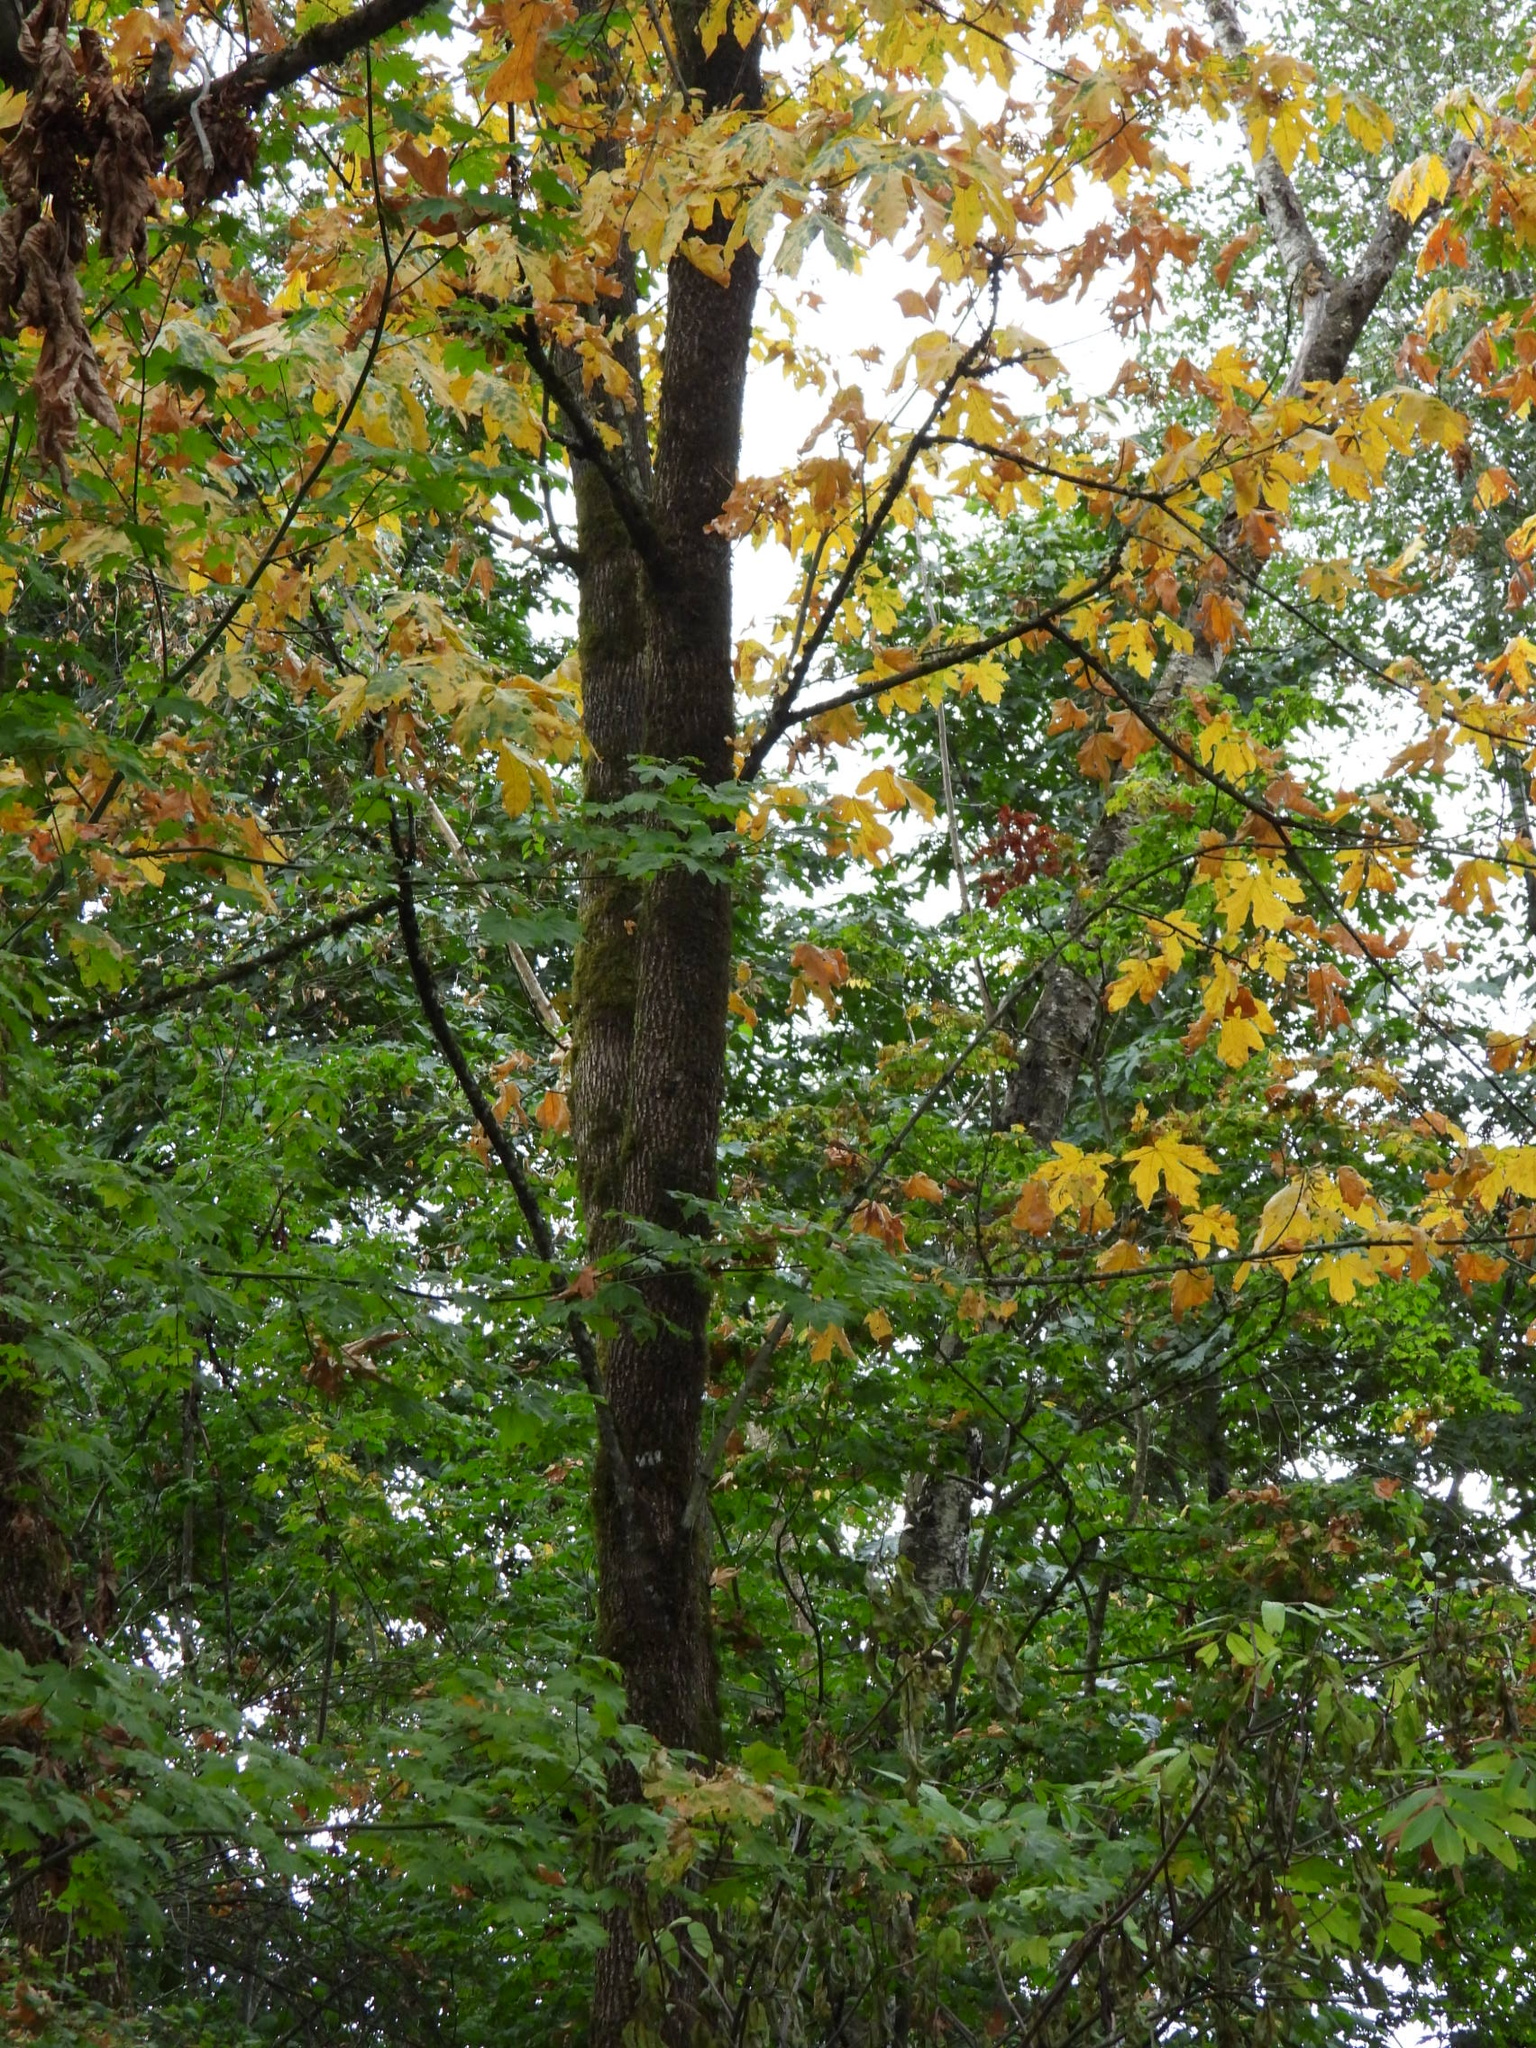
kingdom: Plantae
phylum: Tracheophyta
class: Magnoliopsida
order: Sapindales
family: Sapindaceae
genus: Acer
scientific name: Acer macrophyllum
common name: Oregon maple
